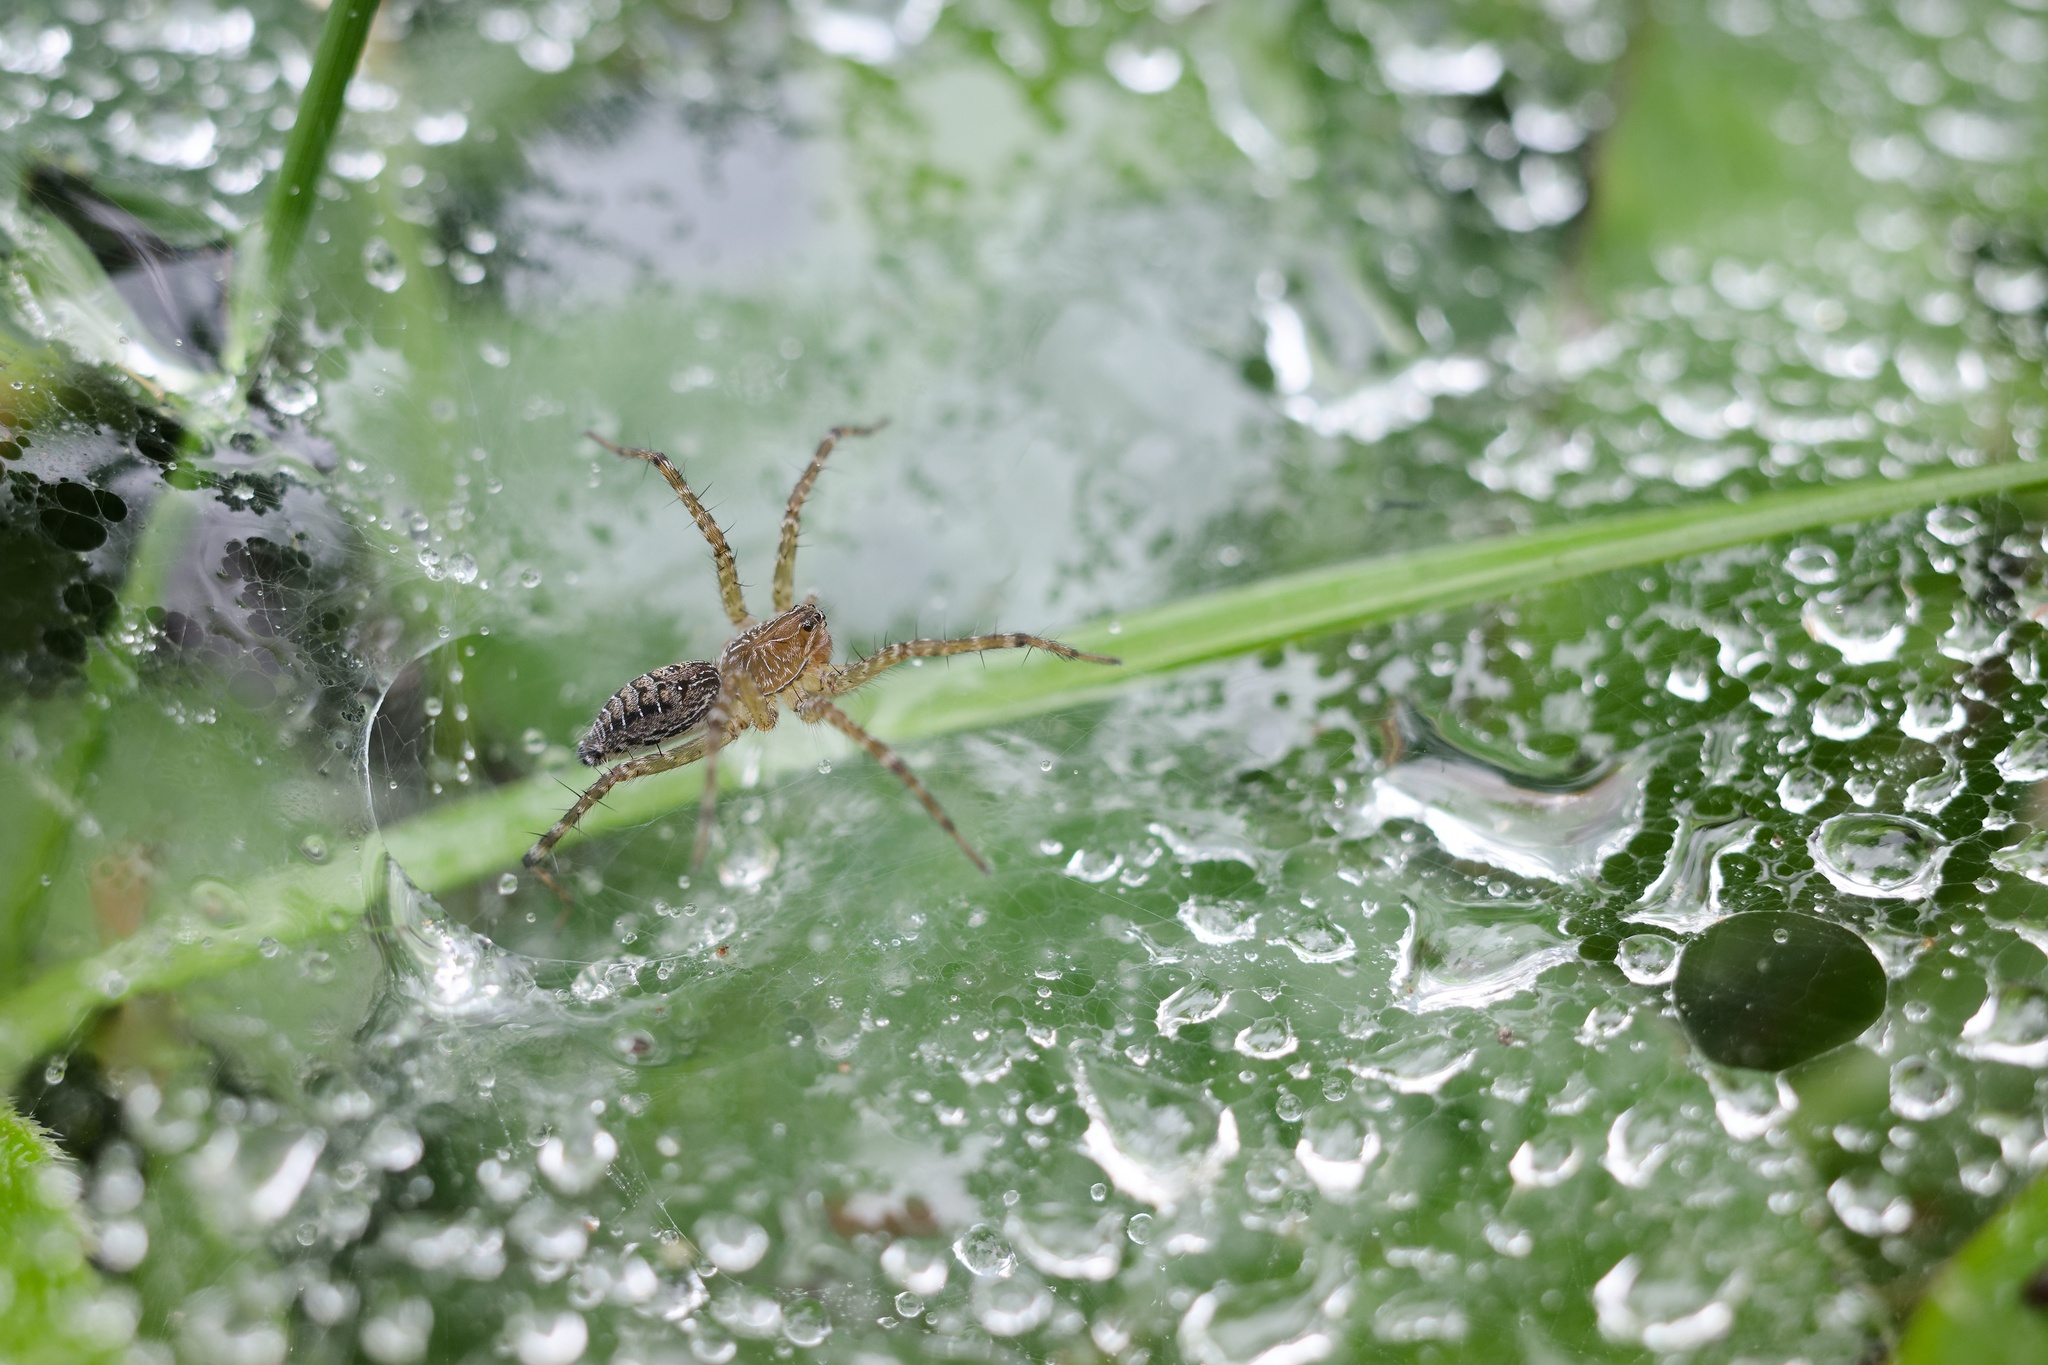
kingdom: Animalia
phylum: Arthropoda
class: Arachnida
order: Araneae
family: Lycosidae
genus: Hippasa
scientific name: Hippasa holmerae
